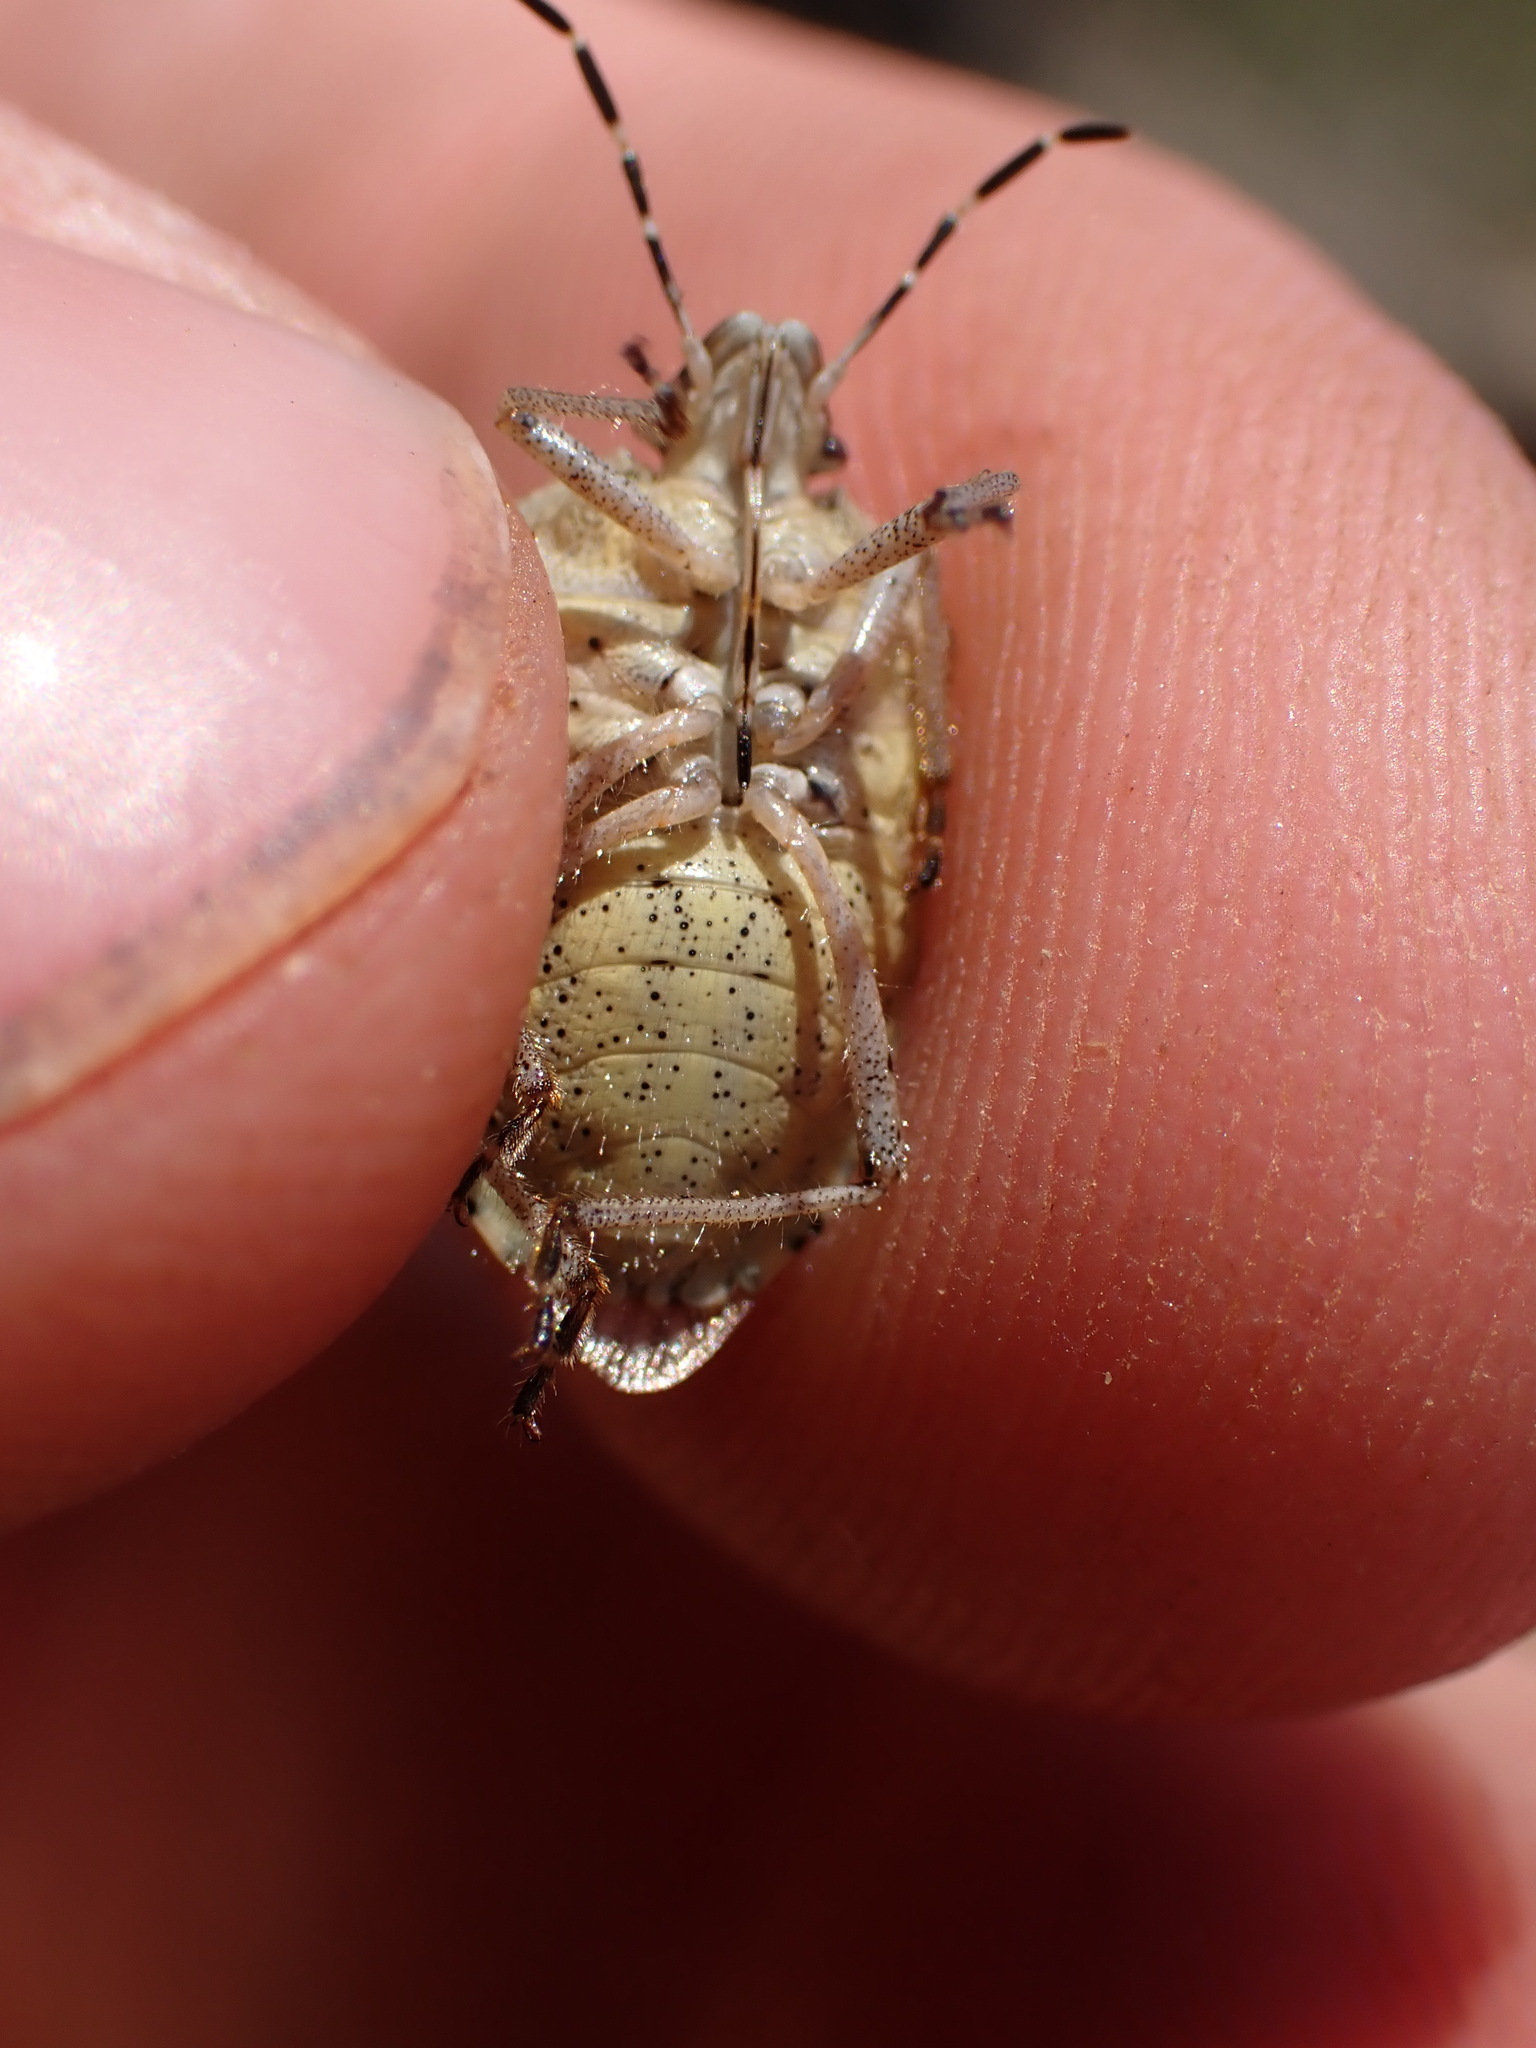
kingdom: Animalia
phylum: Arthropoda
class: Insecta
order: Hemiptera
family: Pentatomidae
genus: Dolycoris
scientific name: Dolycoris baccarum
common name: Sloe bug
